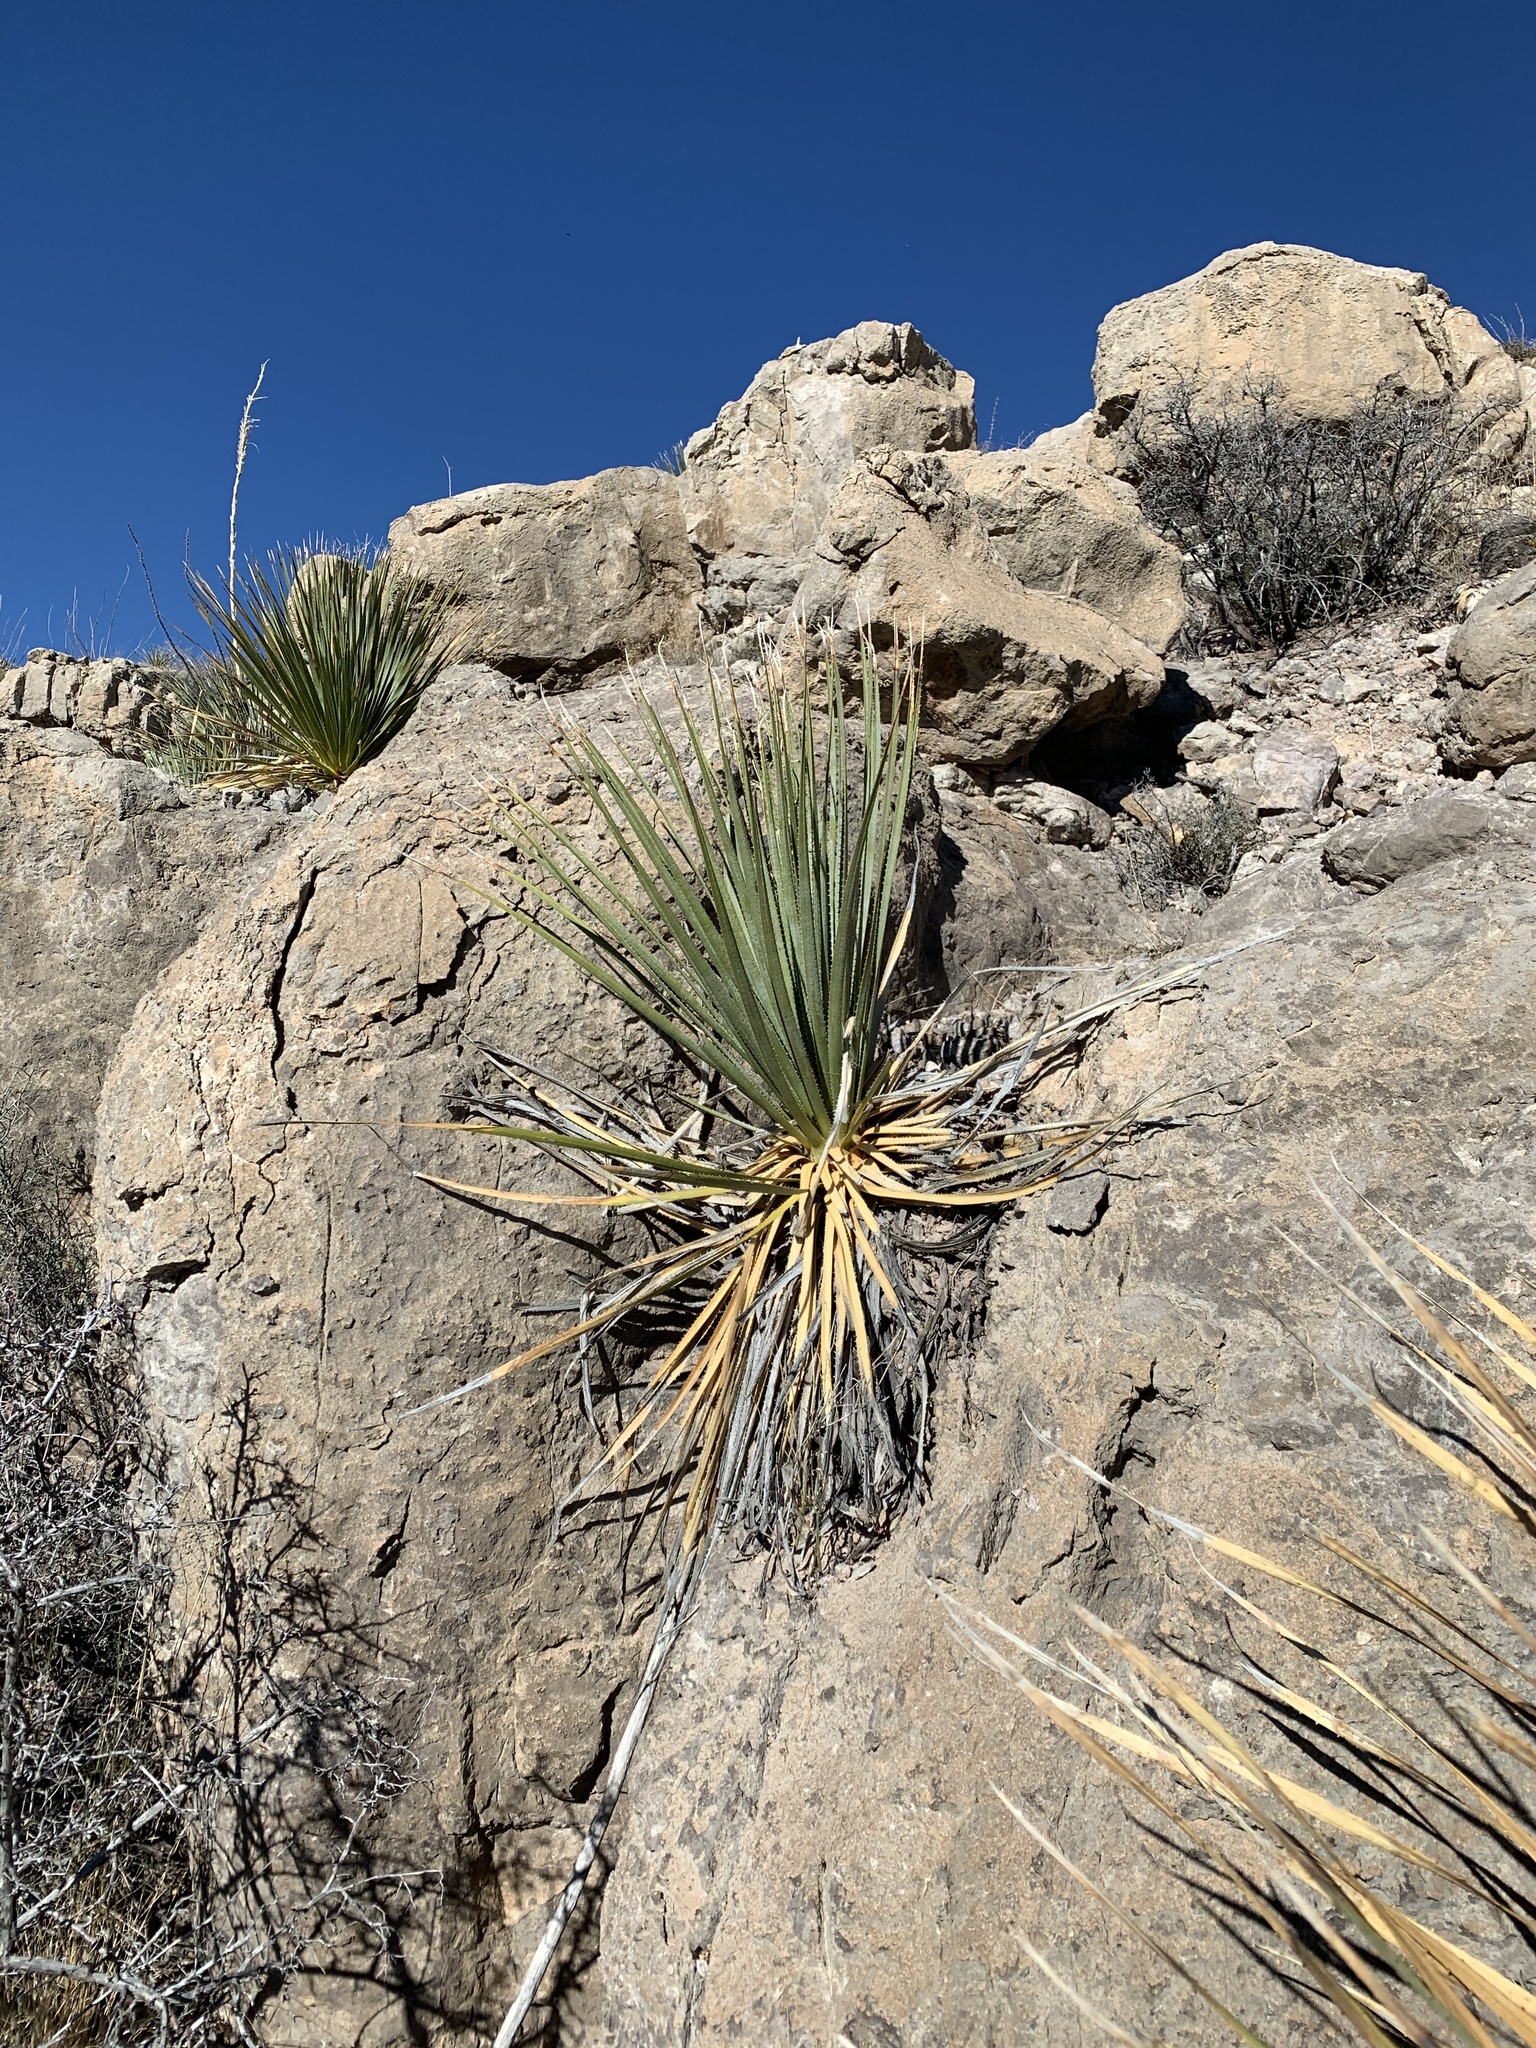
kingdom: Plantae
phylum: Tracheophyta
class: Liliopsida
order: Asparagales
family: Asparagaceae
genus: Dasylirion
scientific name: Dasylirion wheeleri
